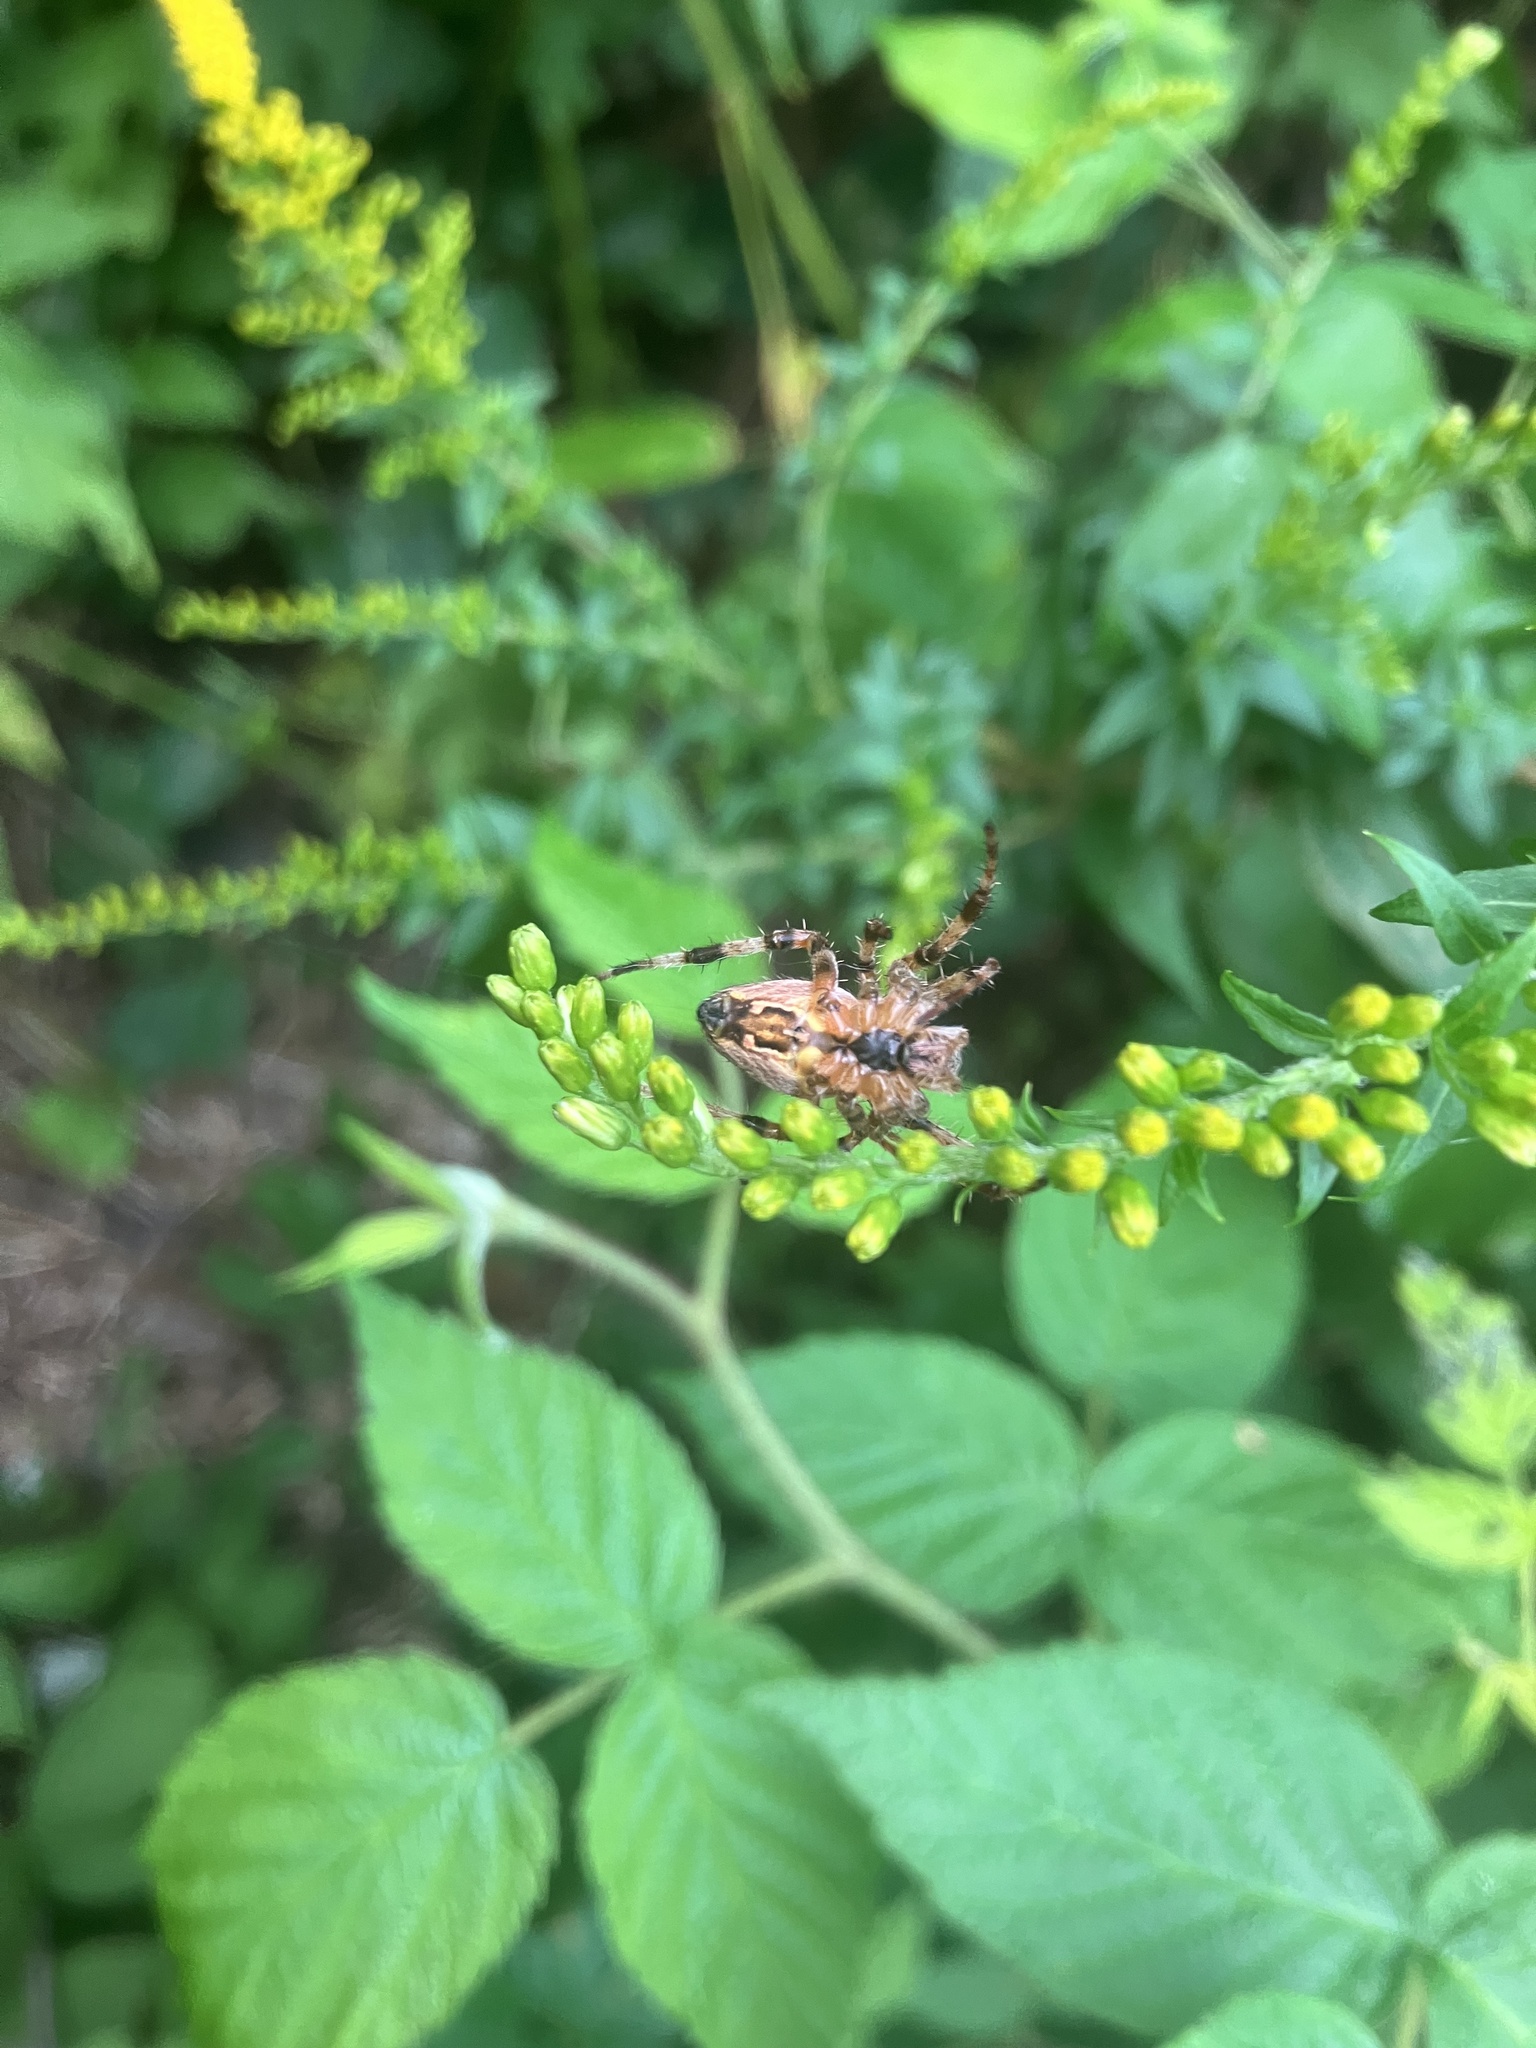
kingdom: Animalia
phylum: Arthropoda
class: Arachnida
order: Araneae
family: Araneidae
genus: Araneus
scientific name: Araneus diadematus
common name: Cross orbweaver
